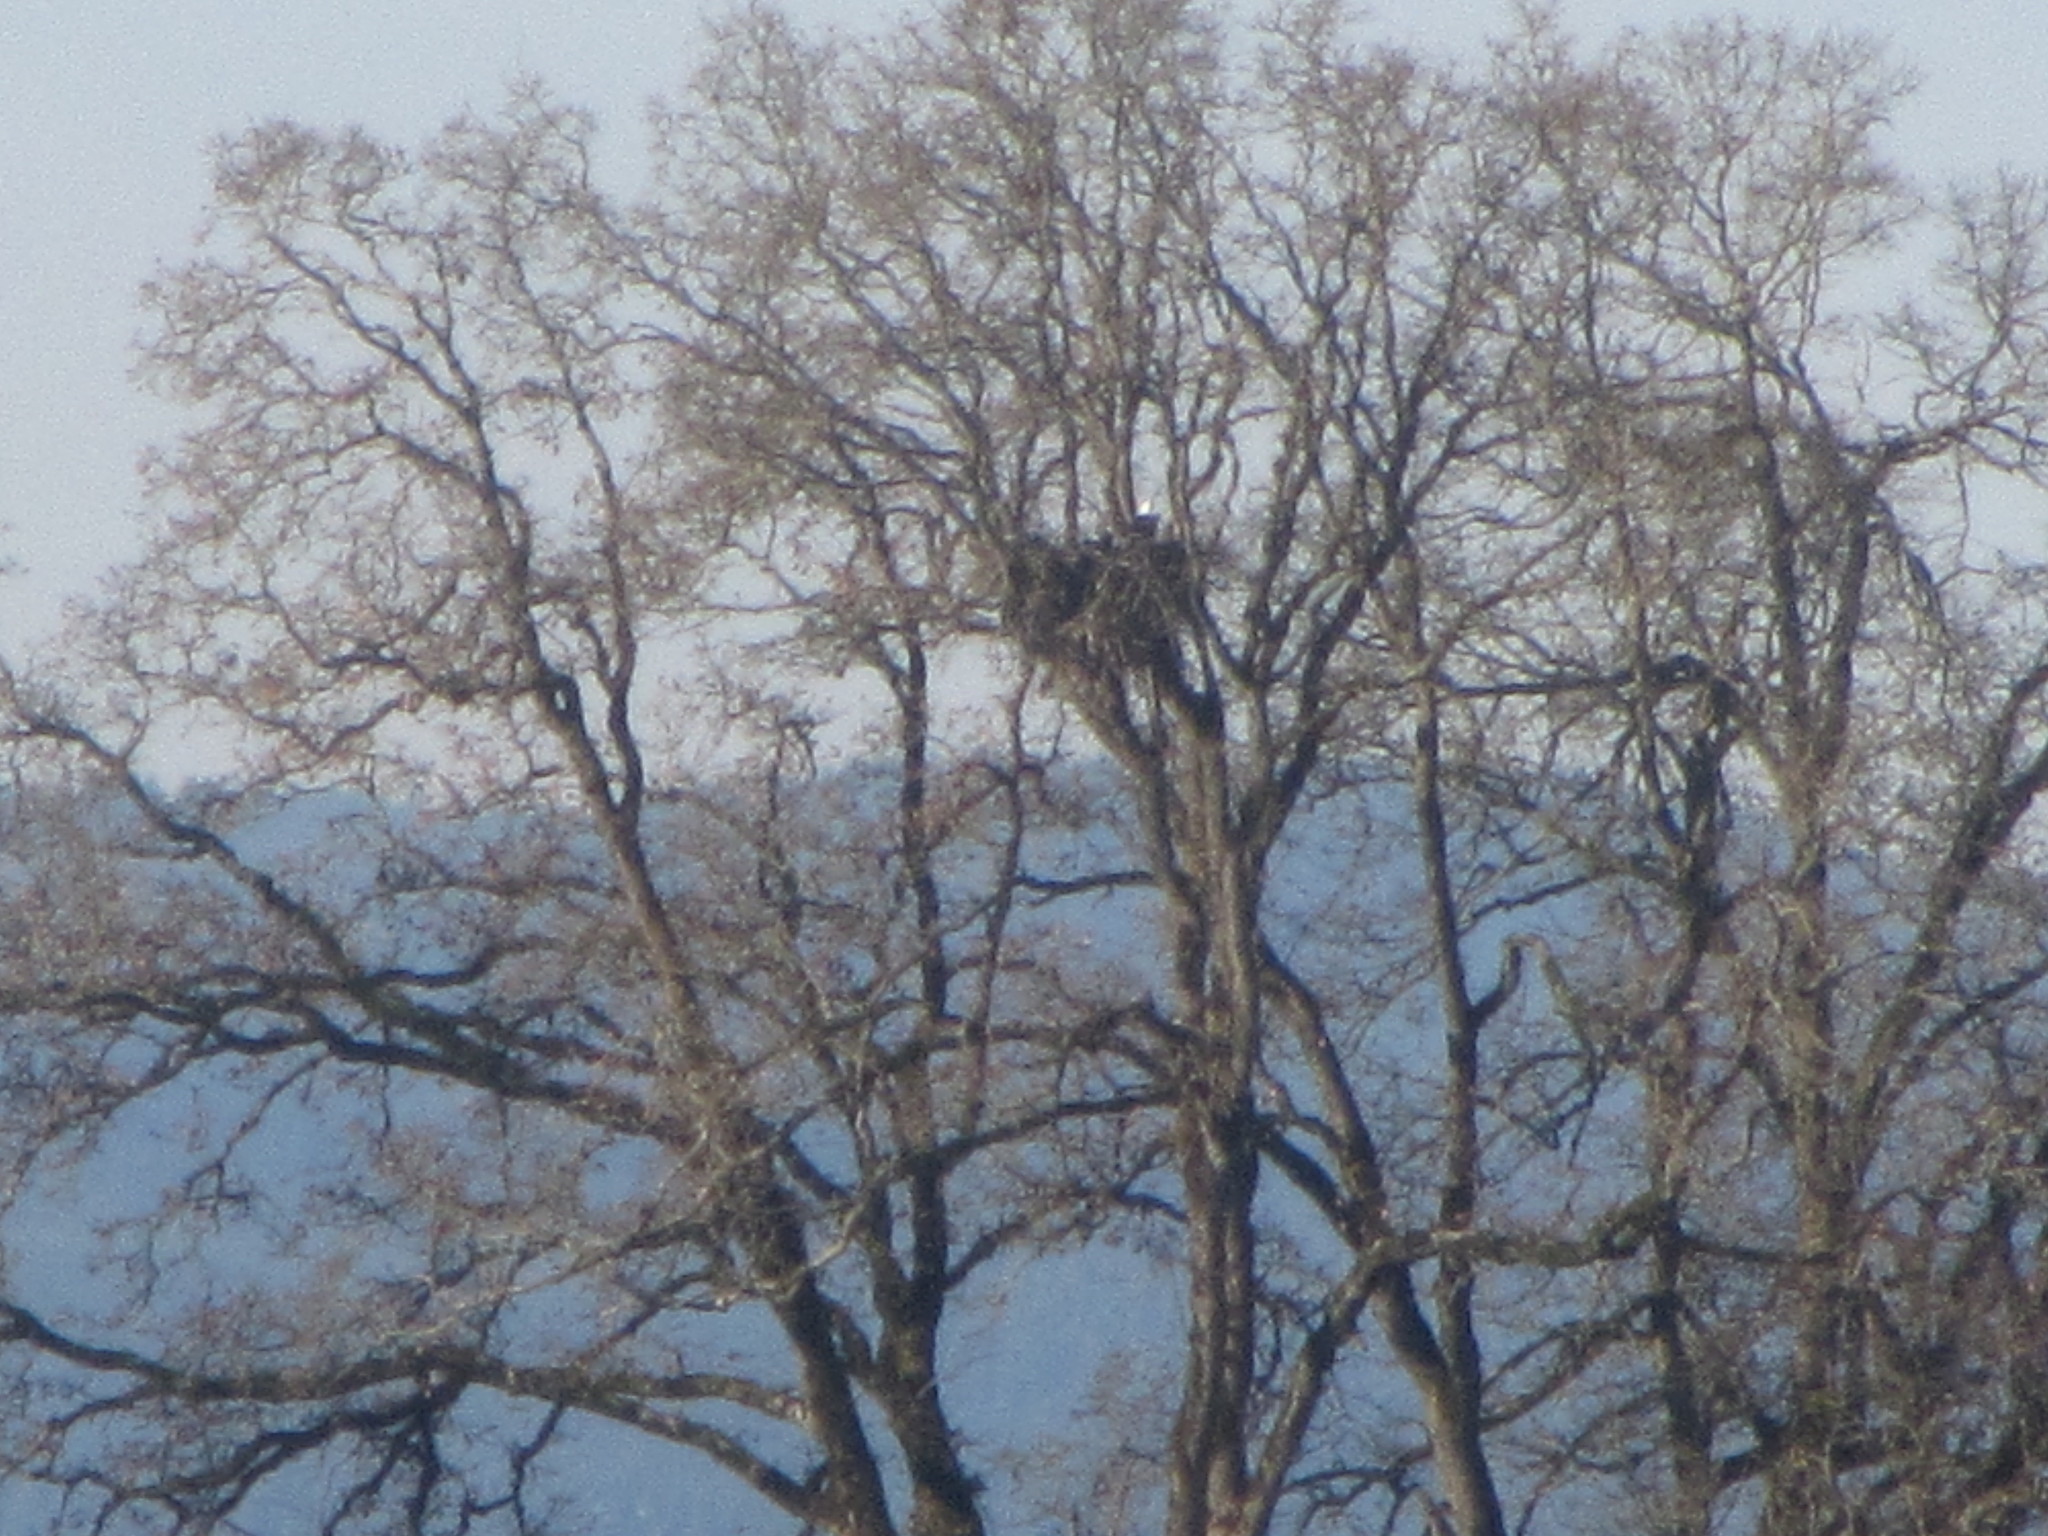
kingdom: Animalia
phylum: Chordata
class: Aves
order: Accipitriformes
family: Accipitridae
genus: Haliaeetus
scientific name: Haliaeetus leucocephalus
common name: Bald eagle
